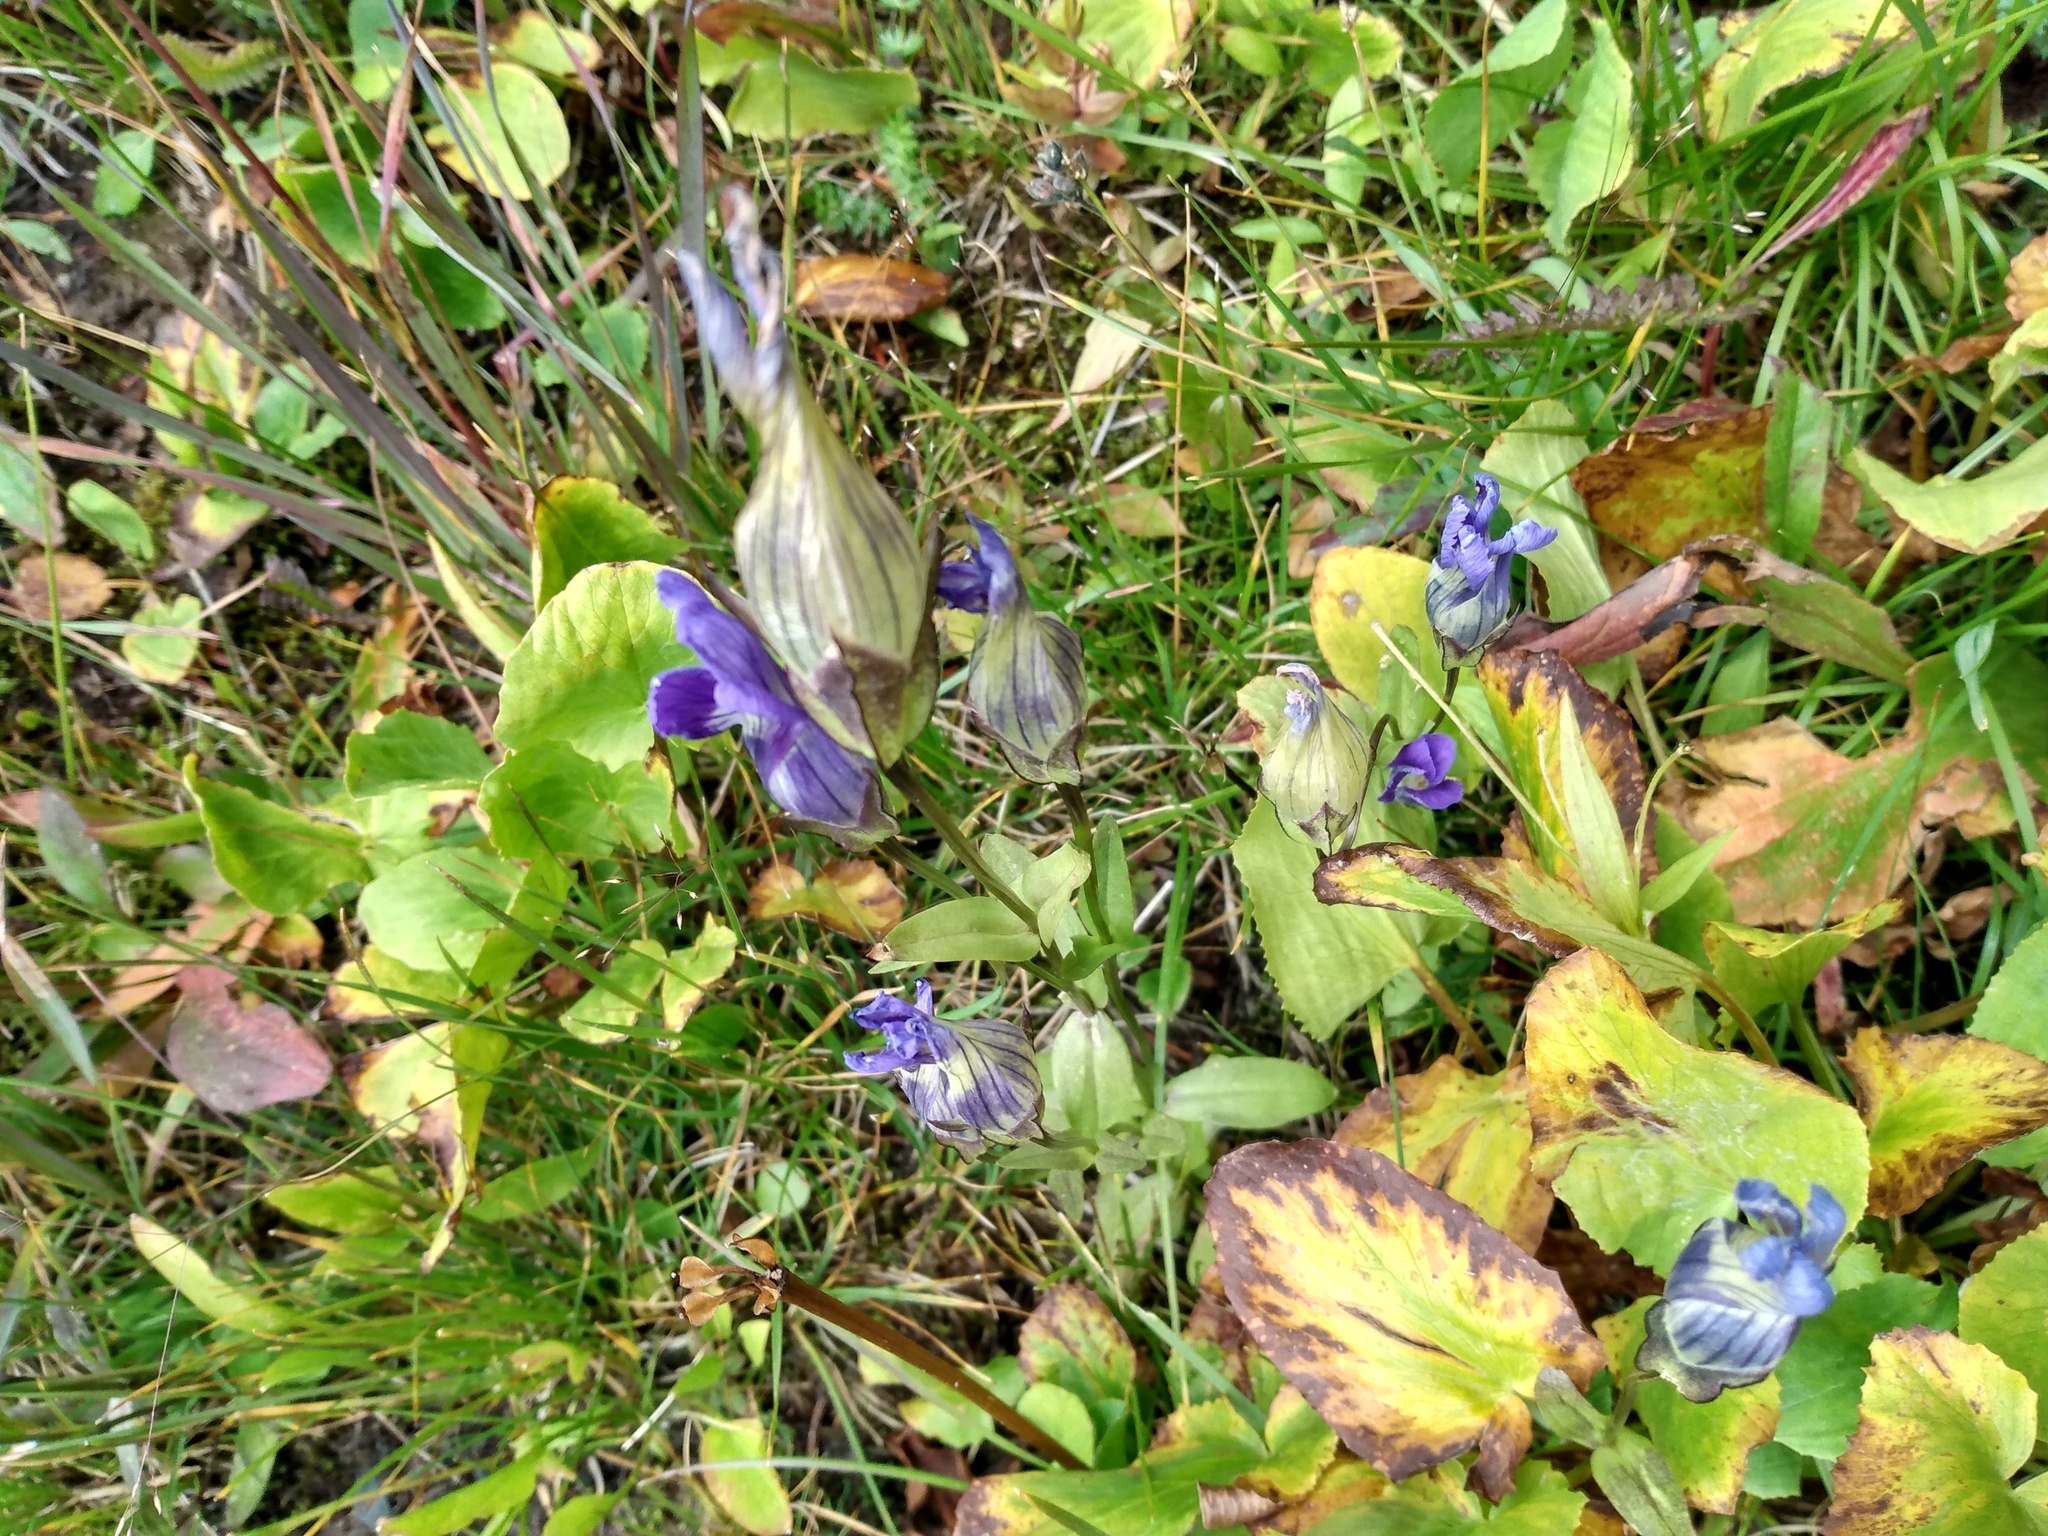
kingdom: Plantae
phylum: Tracheophyta
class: Magnoliopsida
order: Gentianales
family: Gentianaceae
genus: Gentianopsis
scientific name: Gentianopsis thermalis
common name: Rocky mountain fringed-gentian
